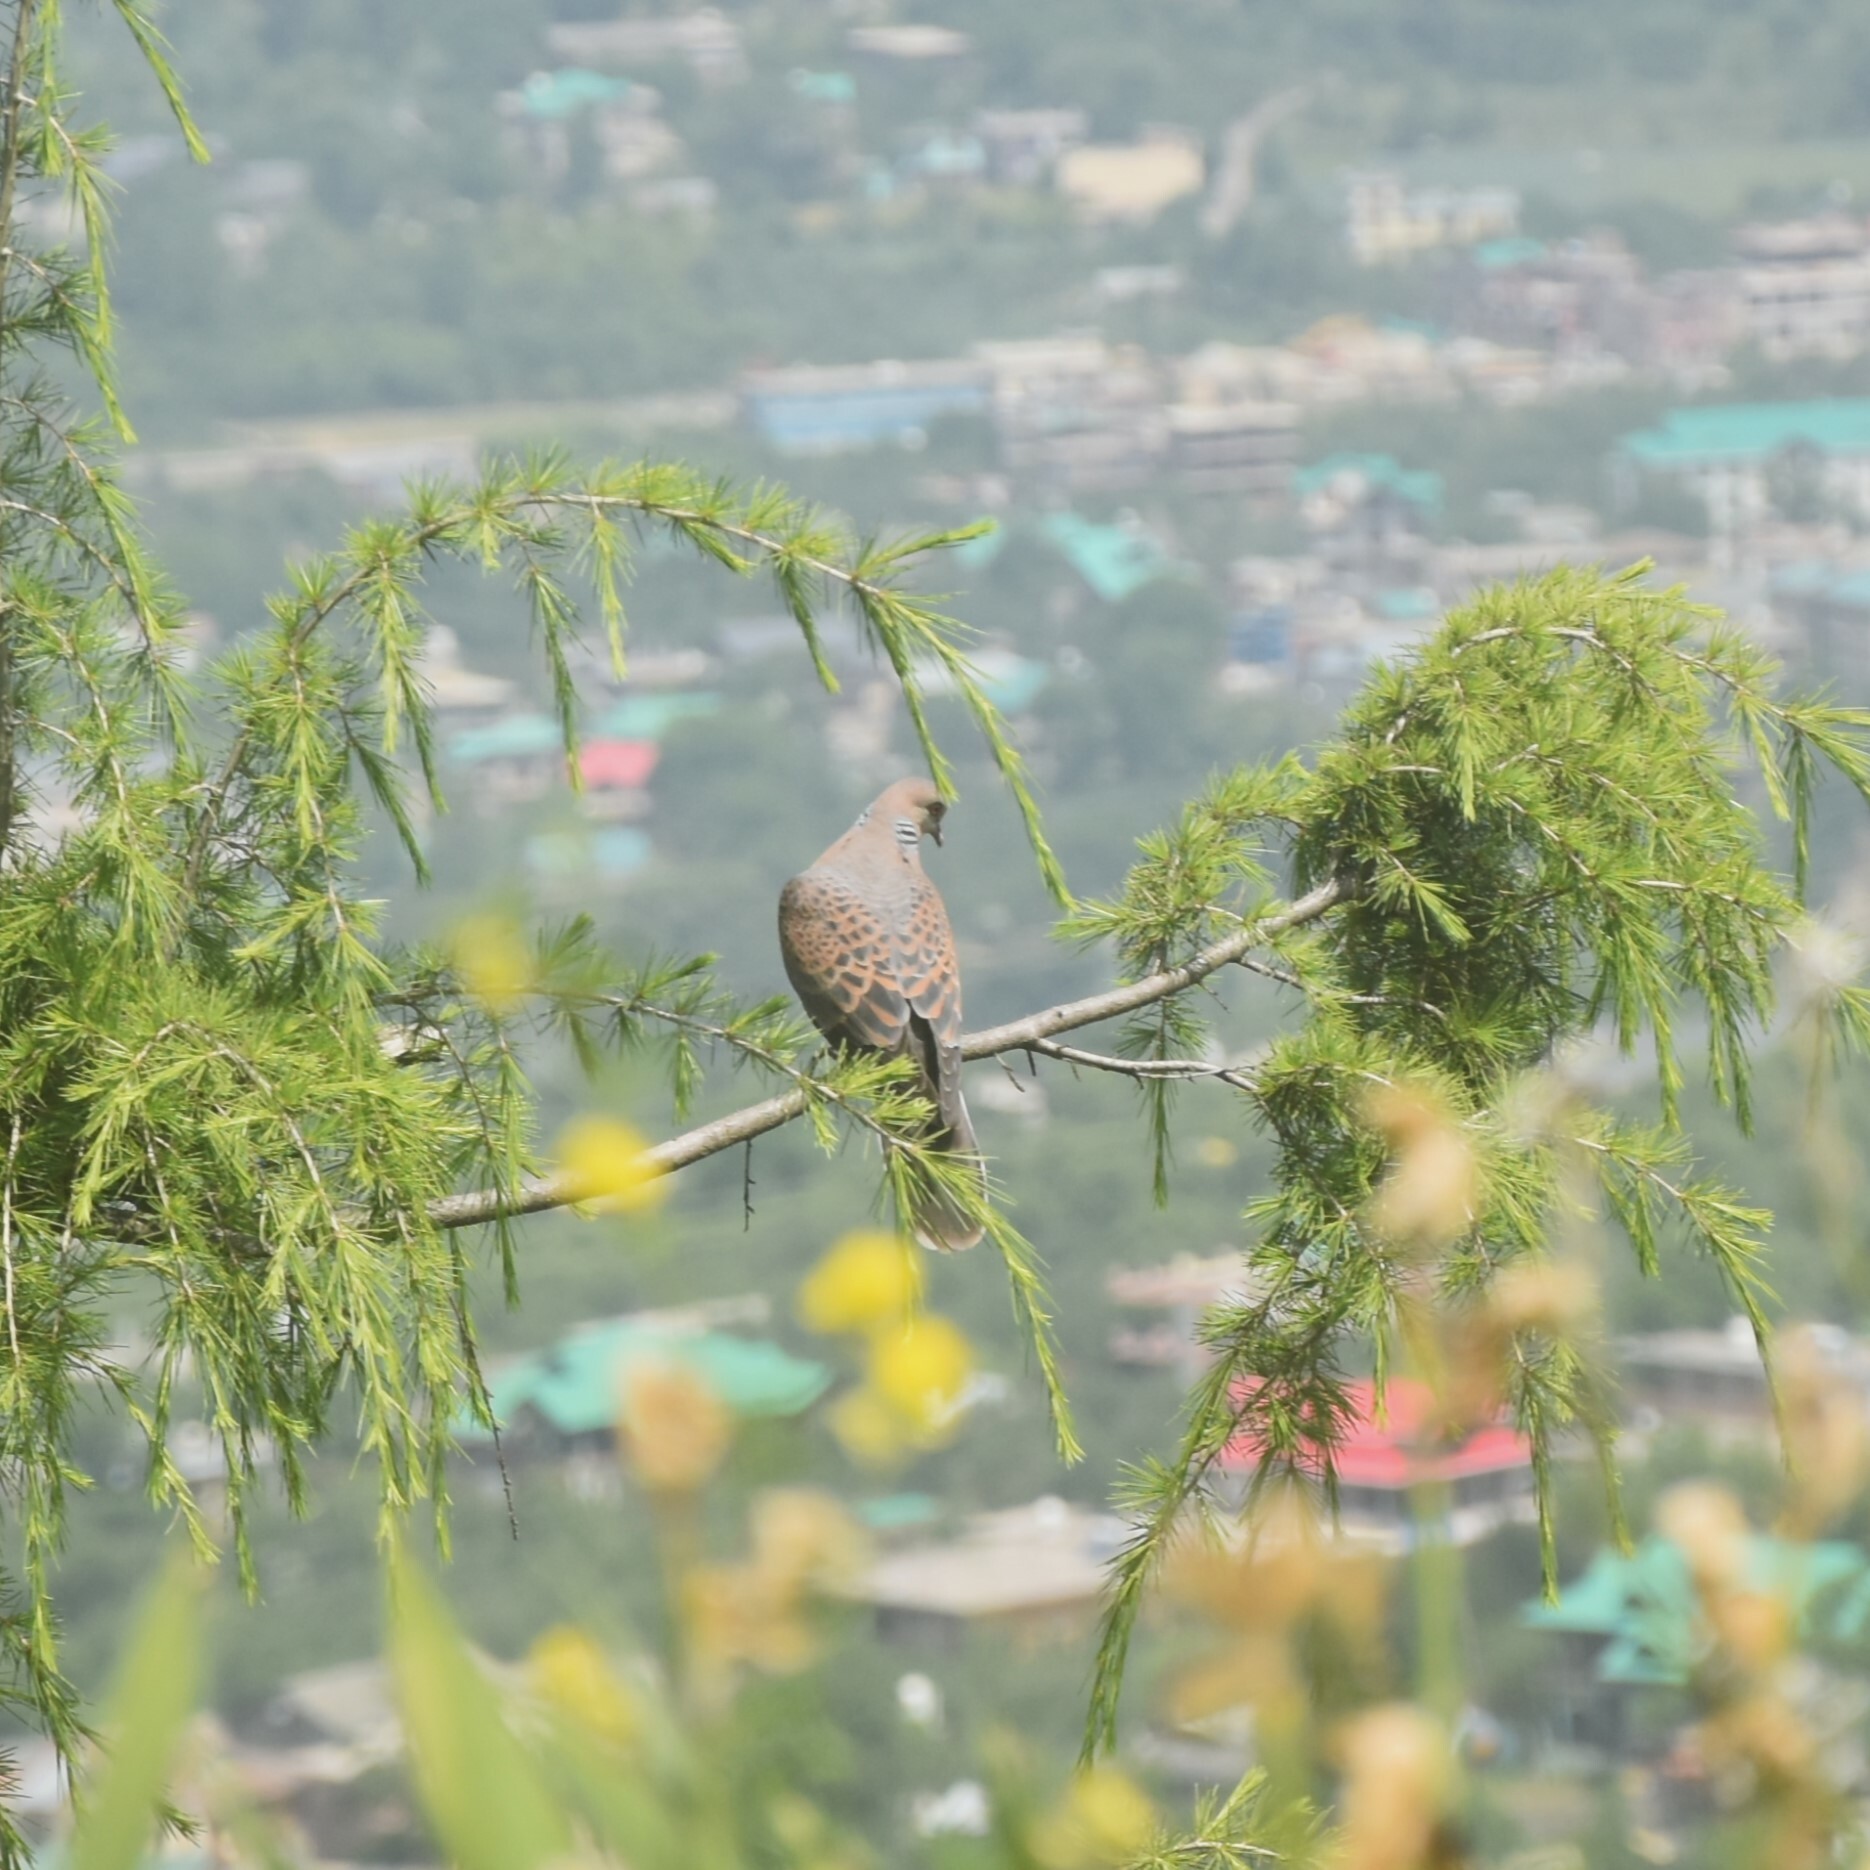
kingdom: Animalia
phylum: Chordata
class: Aves
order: Columbiformes
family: Columbidae
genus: Streptopelia
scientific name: Streptopelia orientalis
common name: Oriental turtle dove
